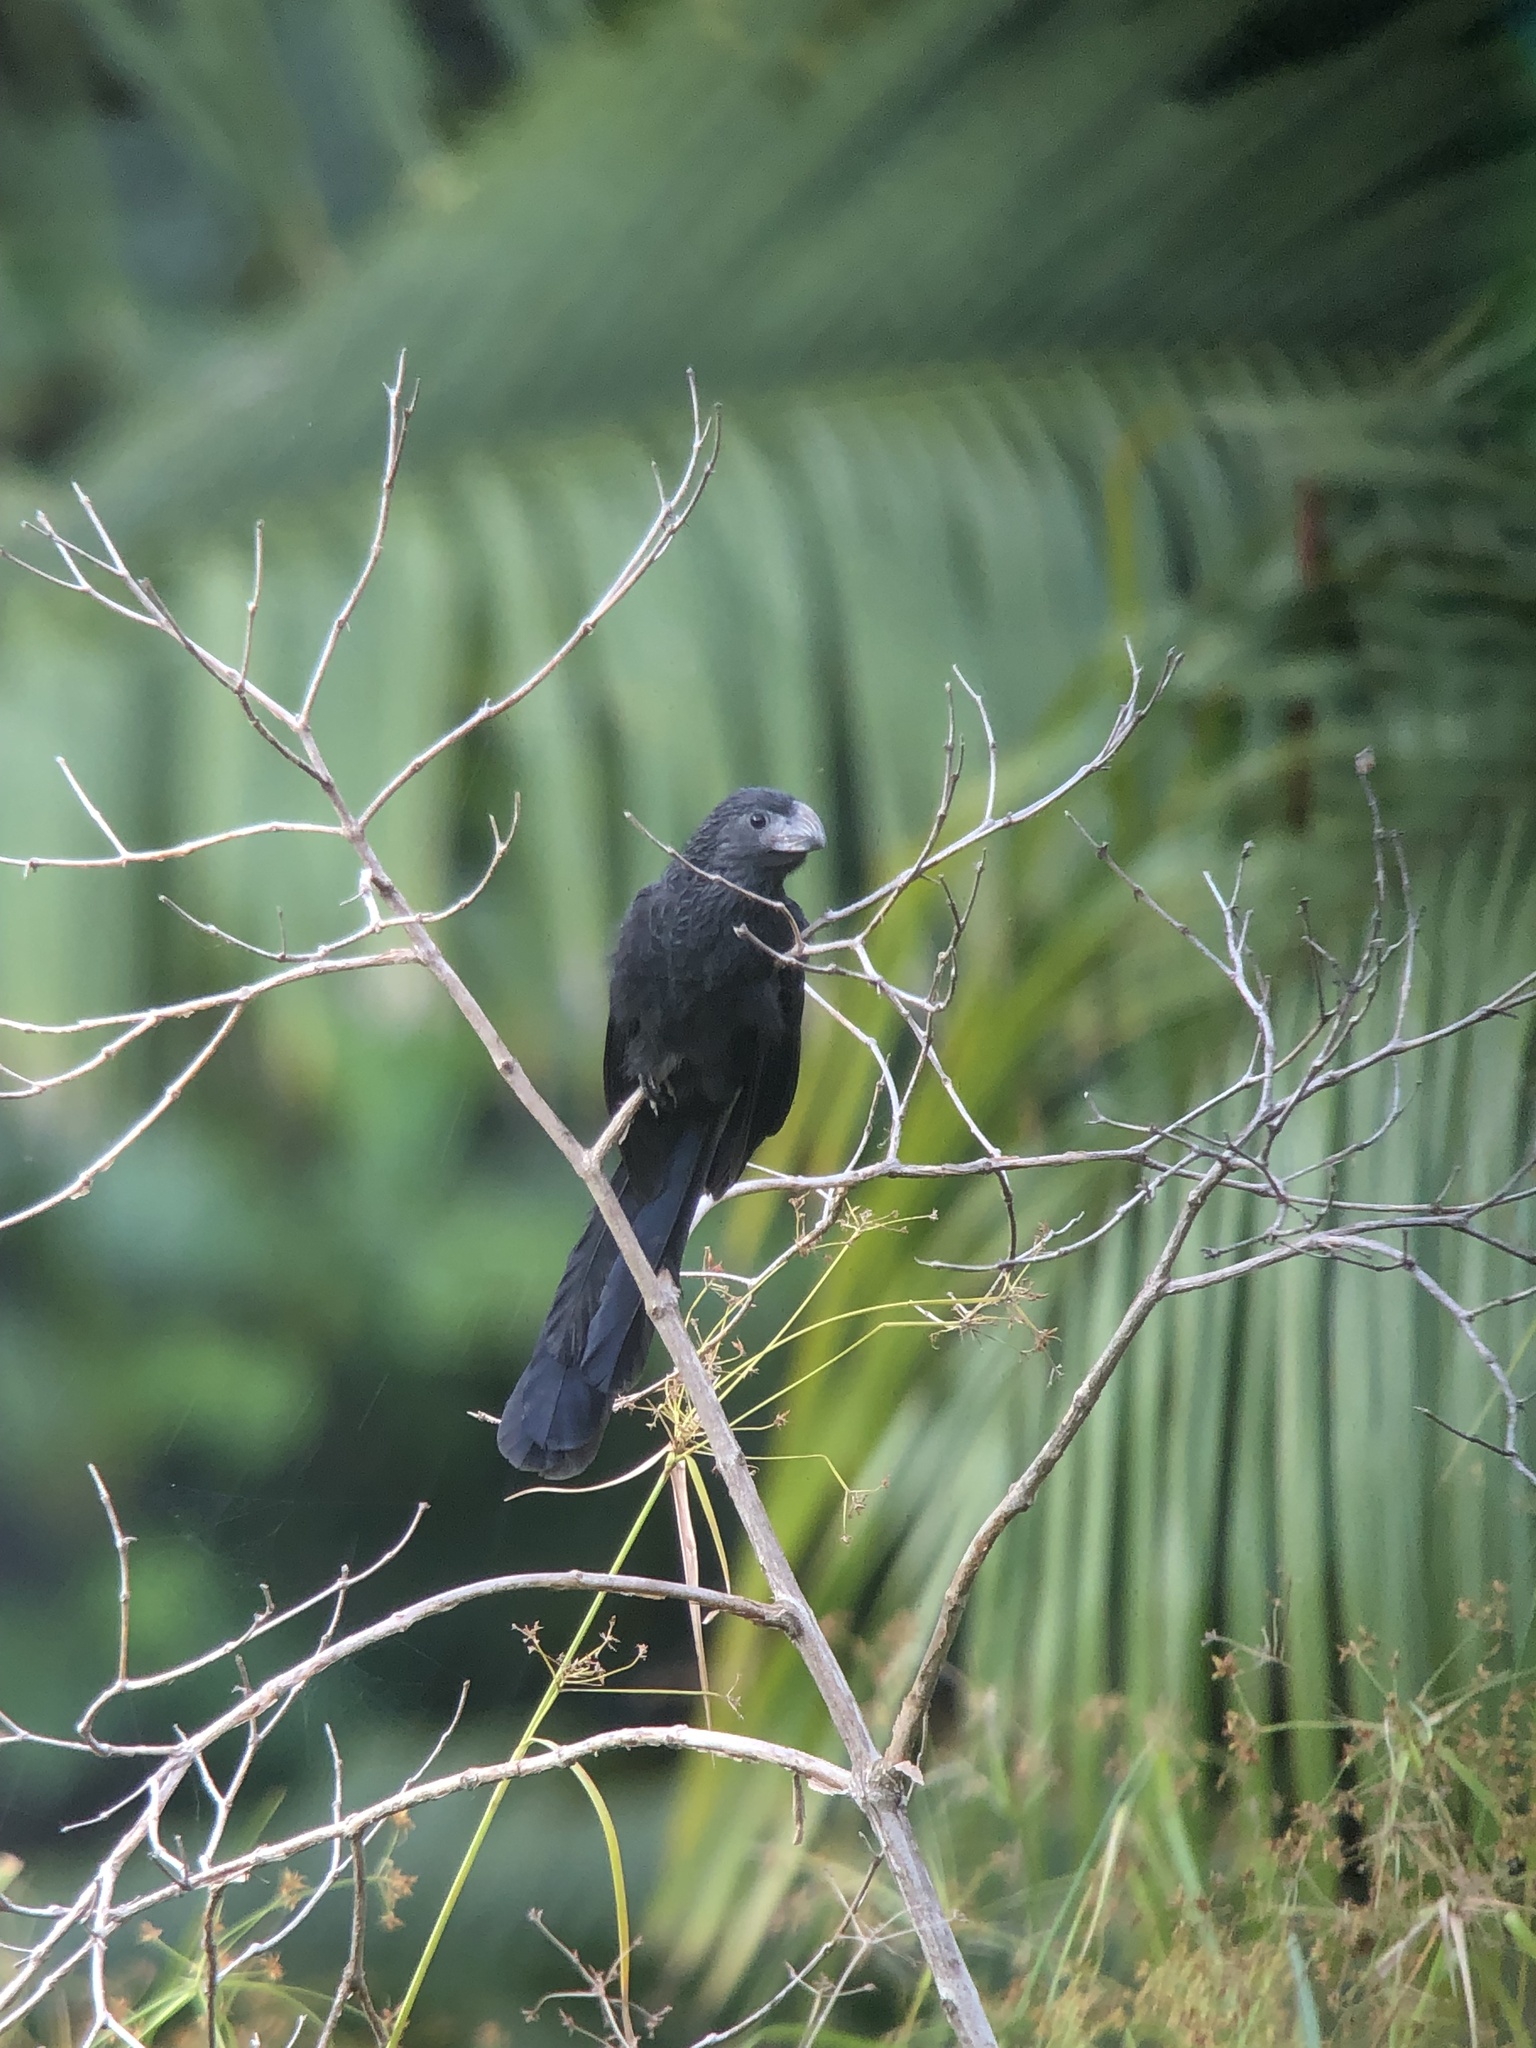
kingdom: Animalia
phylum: Chordata
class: Aves
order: Cuculiformes
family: Cuculidae
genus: Crotophaga
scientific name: Crotophaga sulcirostris
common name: Groove-billed ani
